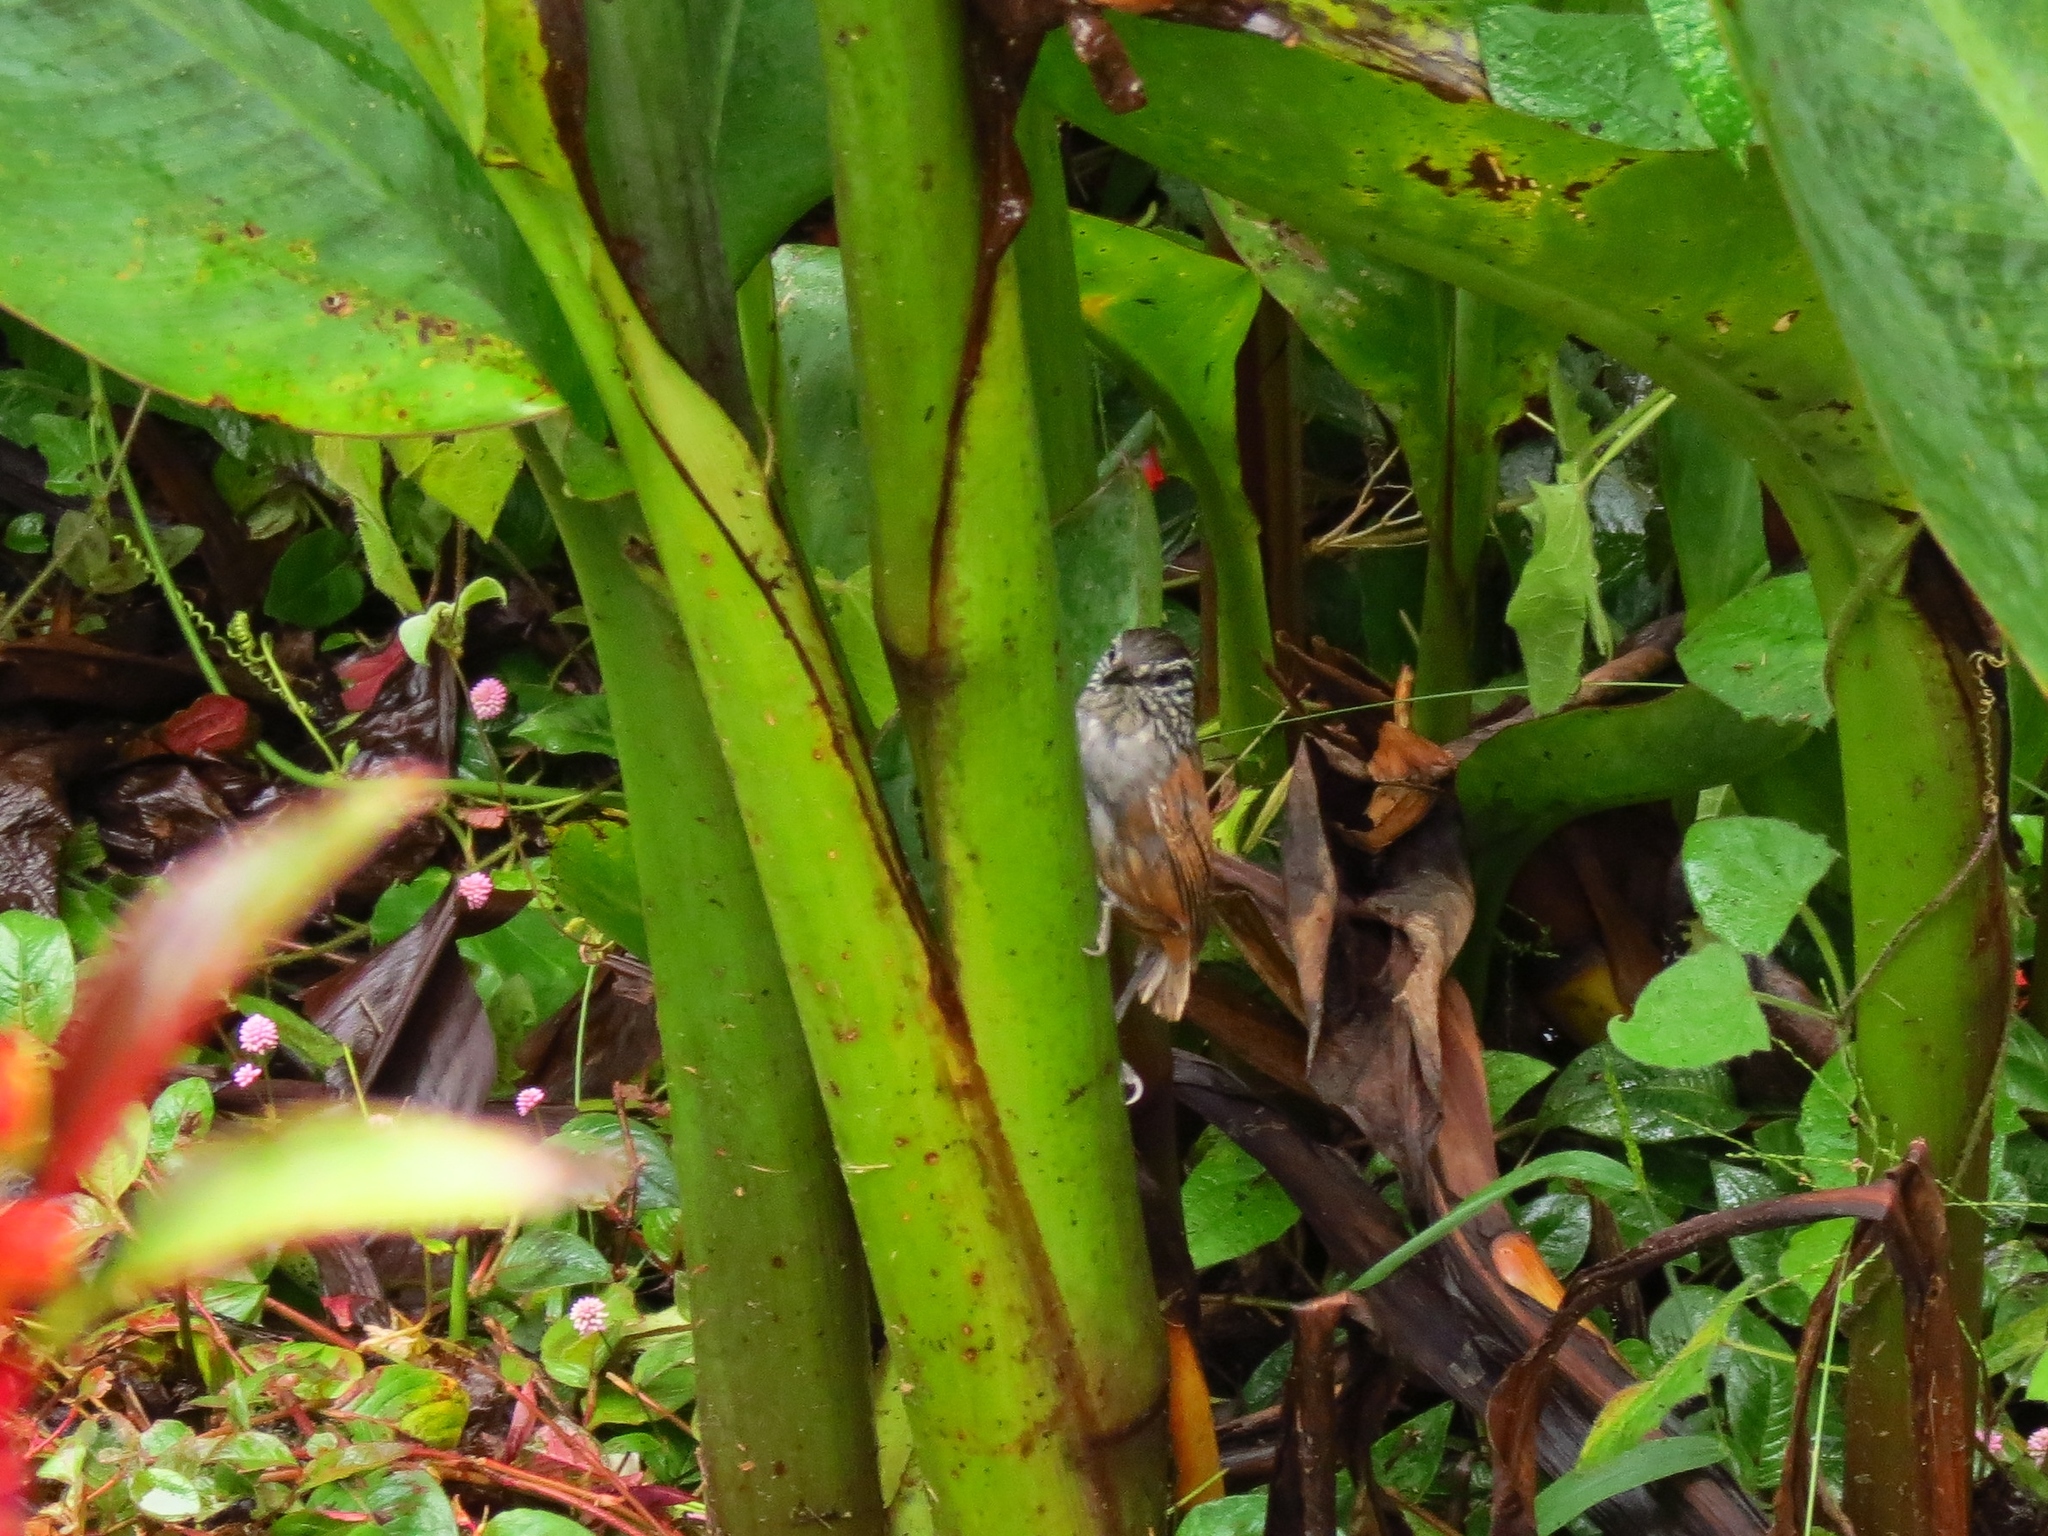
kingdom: Animalia
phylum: Chordata
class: Aves
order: Passeriformes
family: Troglodytidae
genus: Henicorhina
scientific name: Henicorhina leucophrys
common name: Gray-breasted wood-wren
